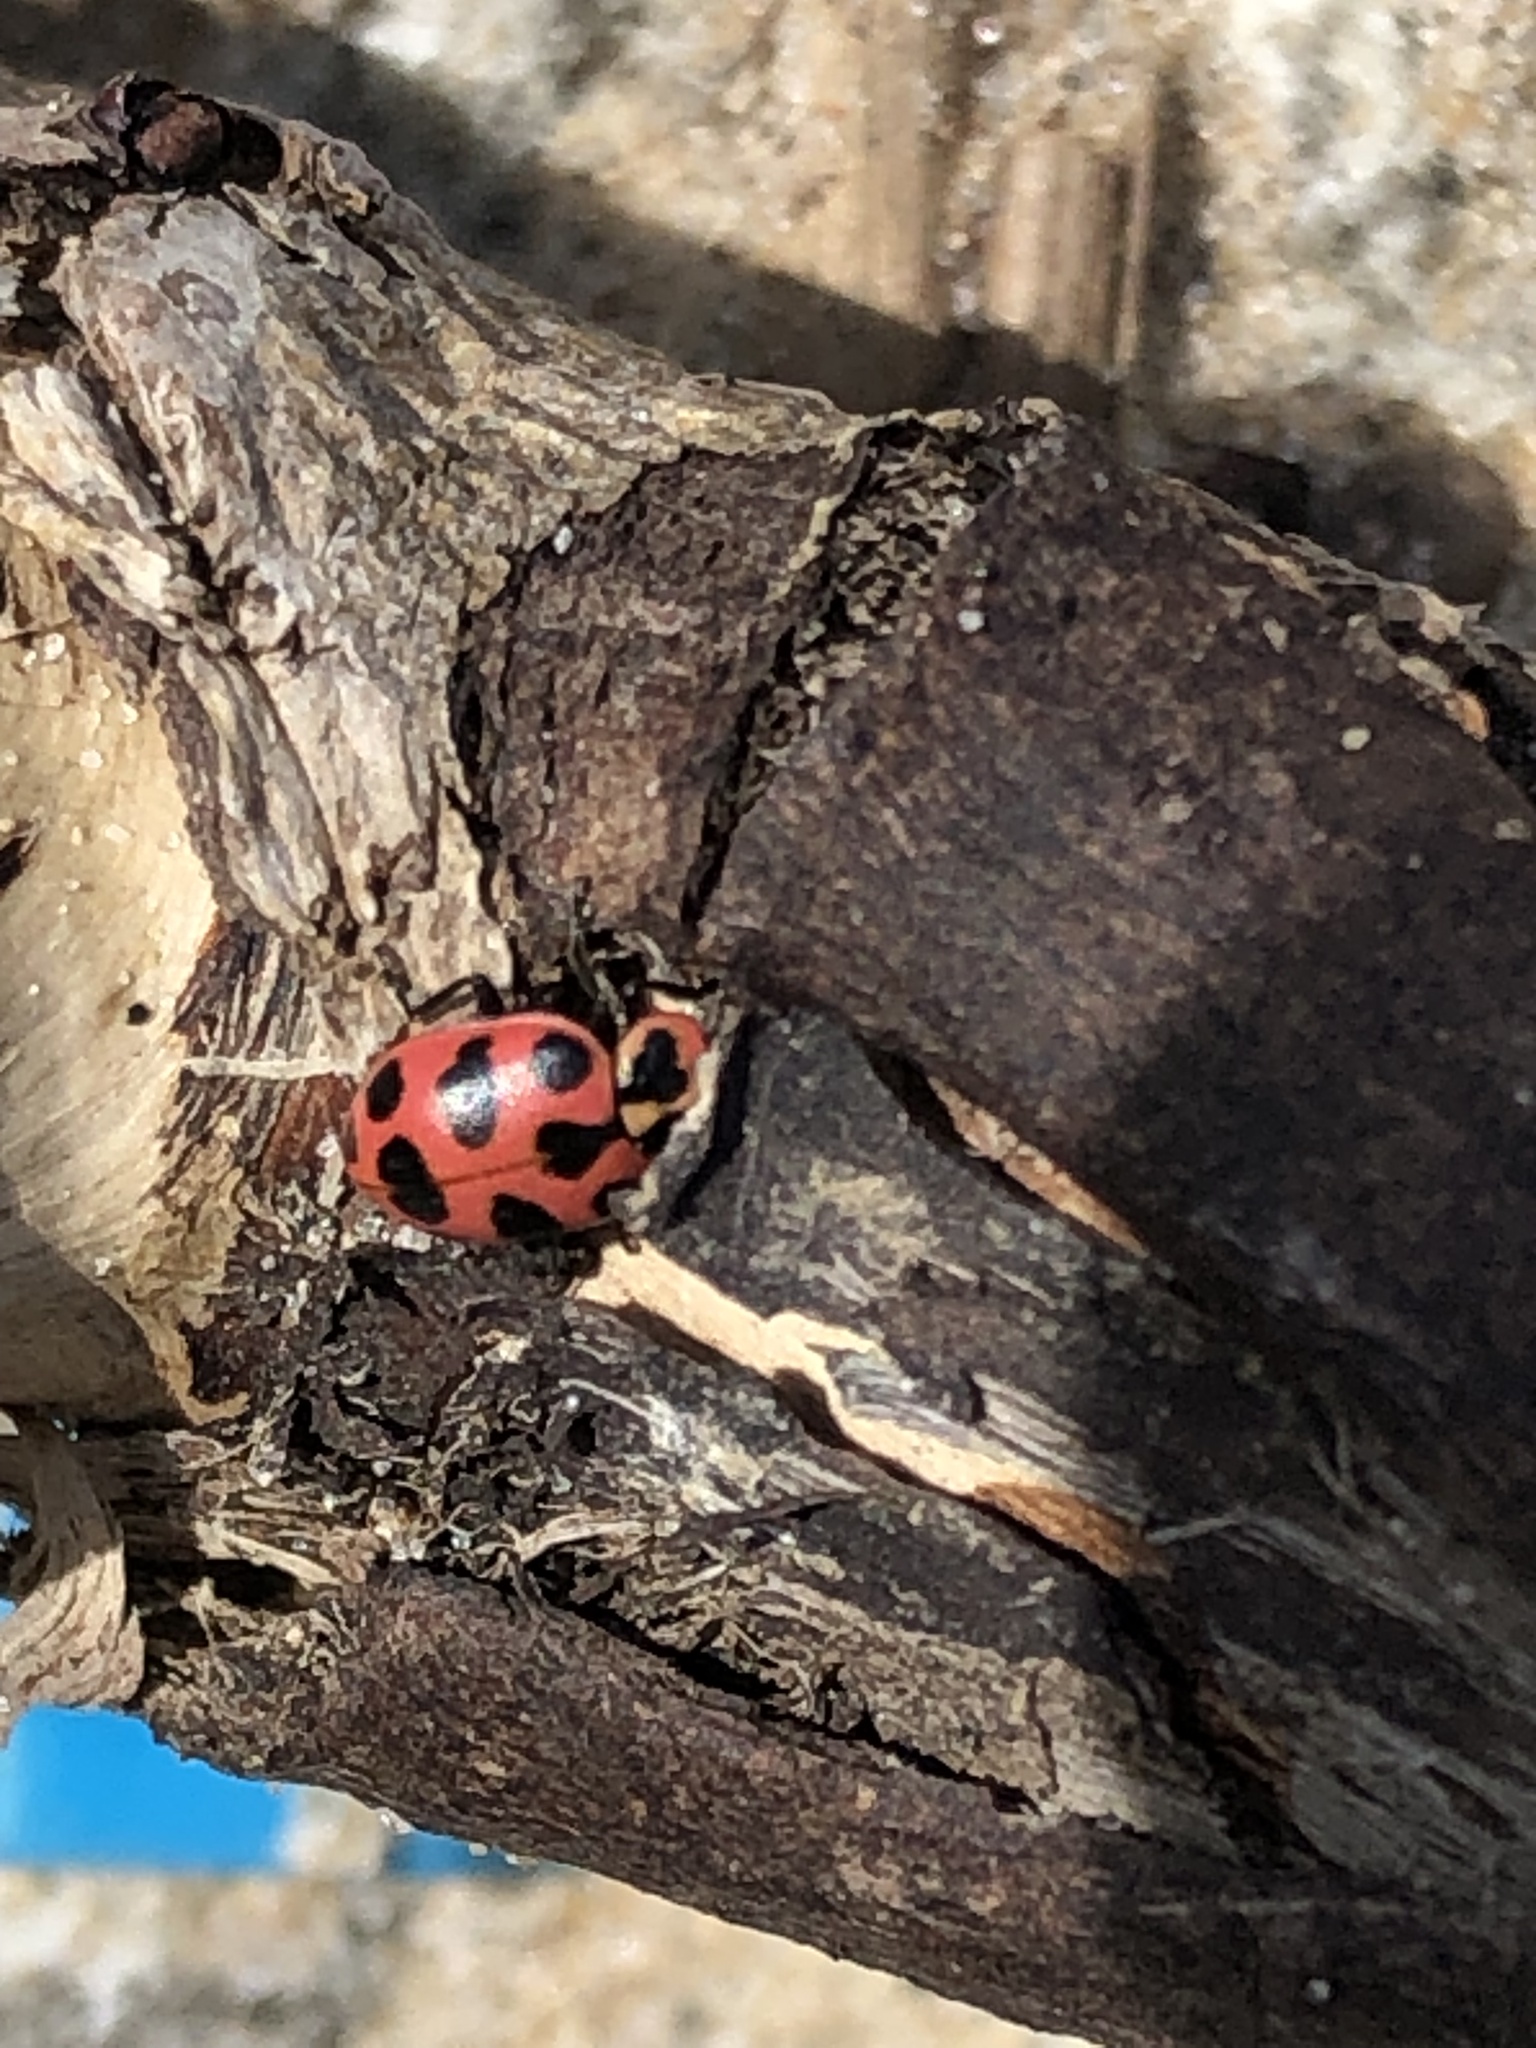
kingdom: Animalia
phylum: Arthropoda
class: Insecta
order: Coleoptera
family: Coccinellidae
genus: Coleomegilla
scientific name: Coleomegilla maculata
